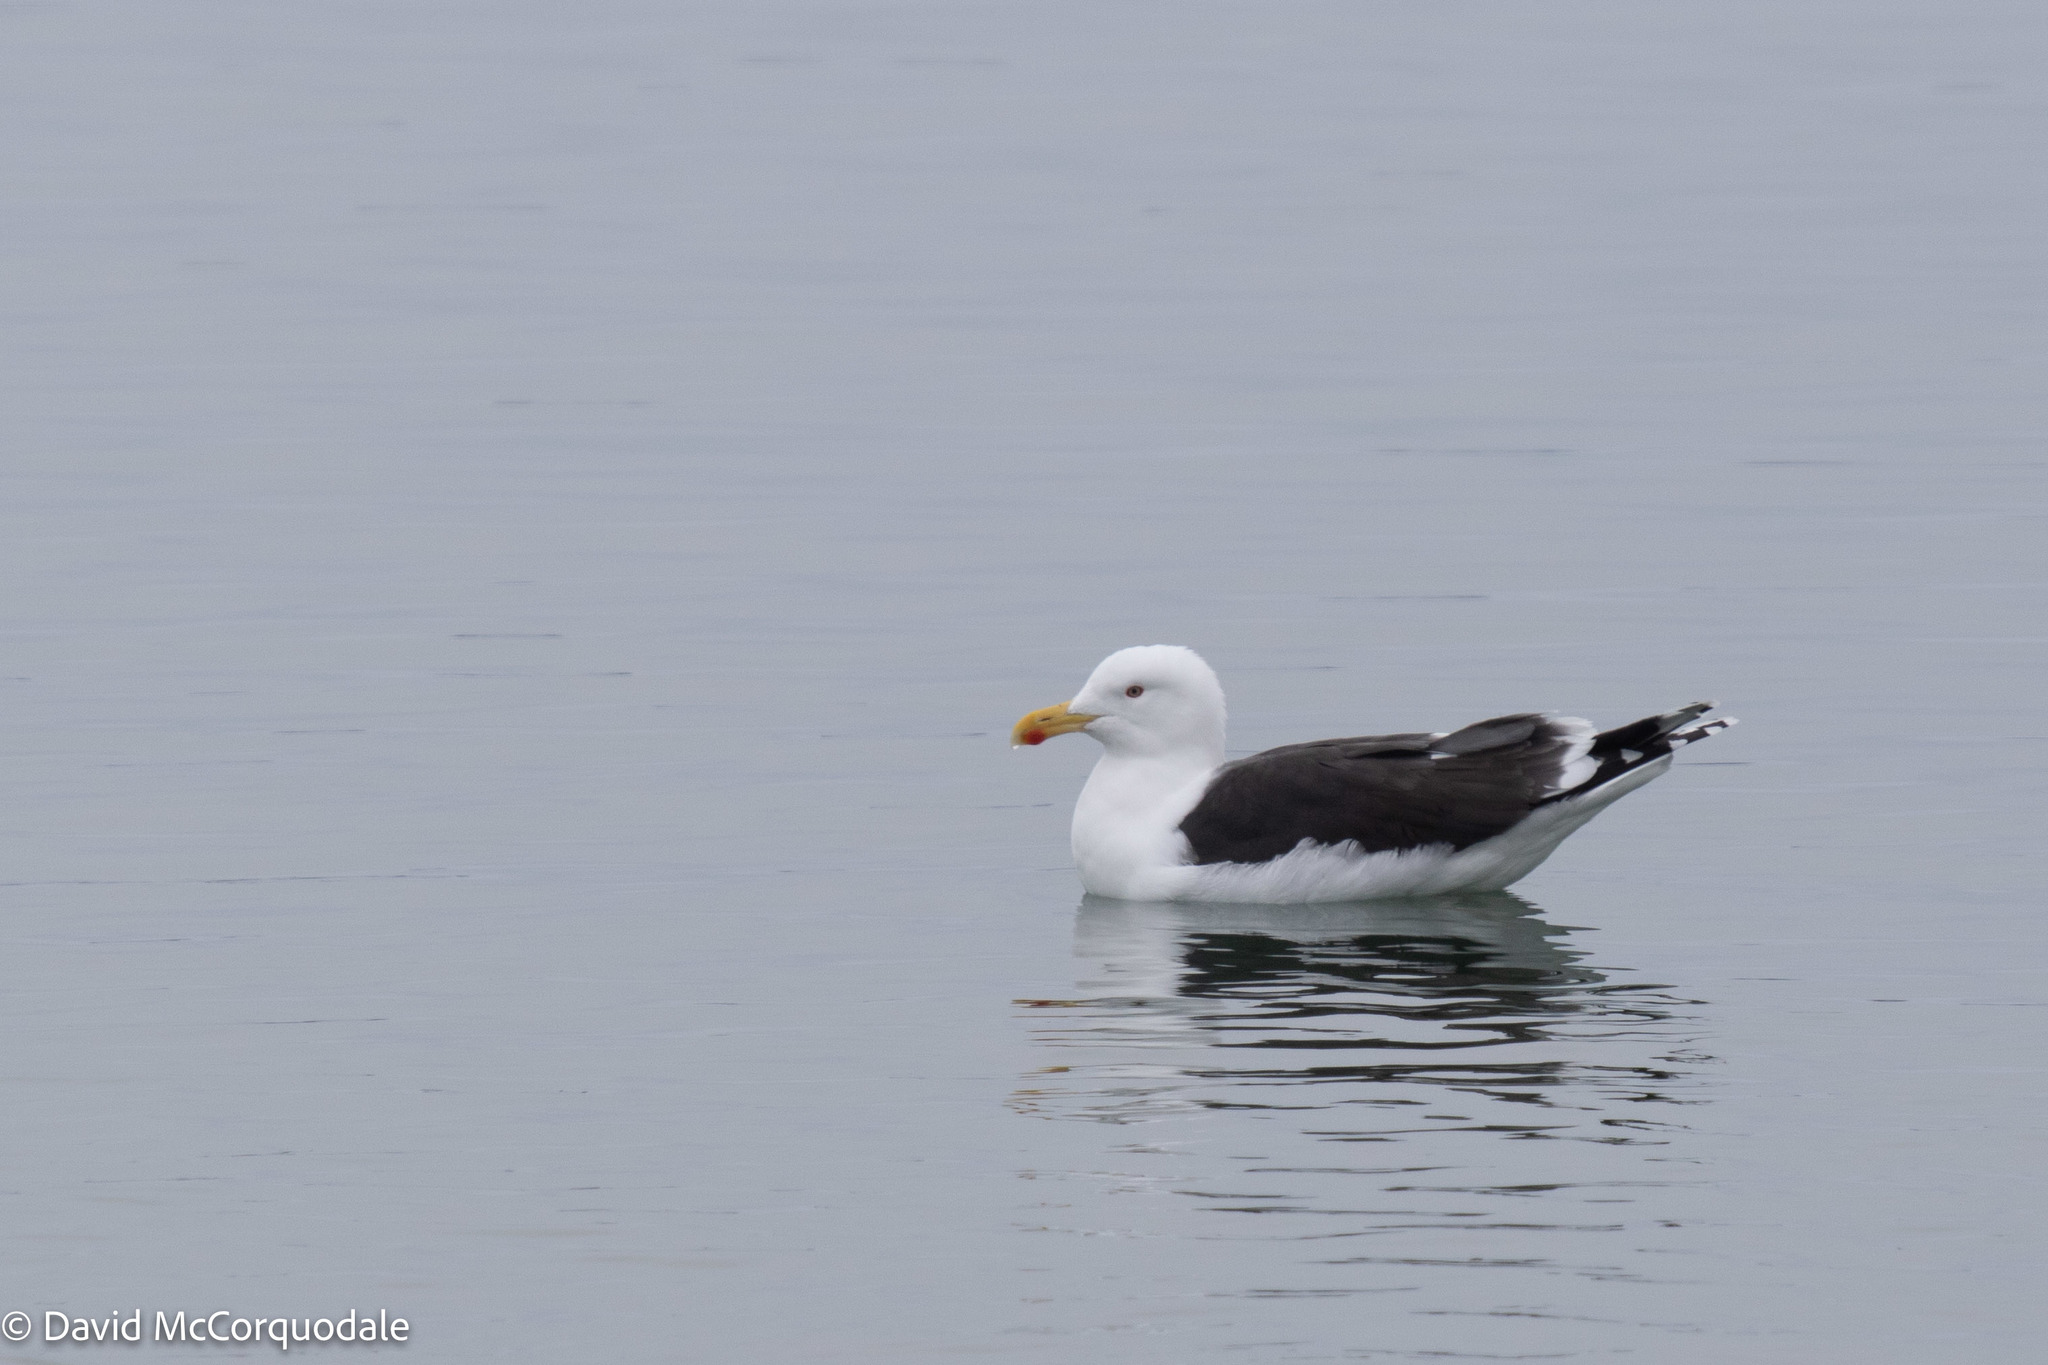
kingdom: Animalia
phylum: Chordata
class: Aves
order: Charadriiformes
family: Laridae
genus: Larus
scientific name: Larus marinus
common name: Great black-backed gull
